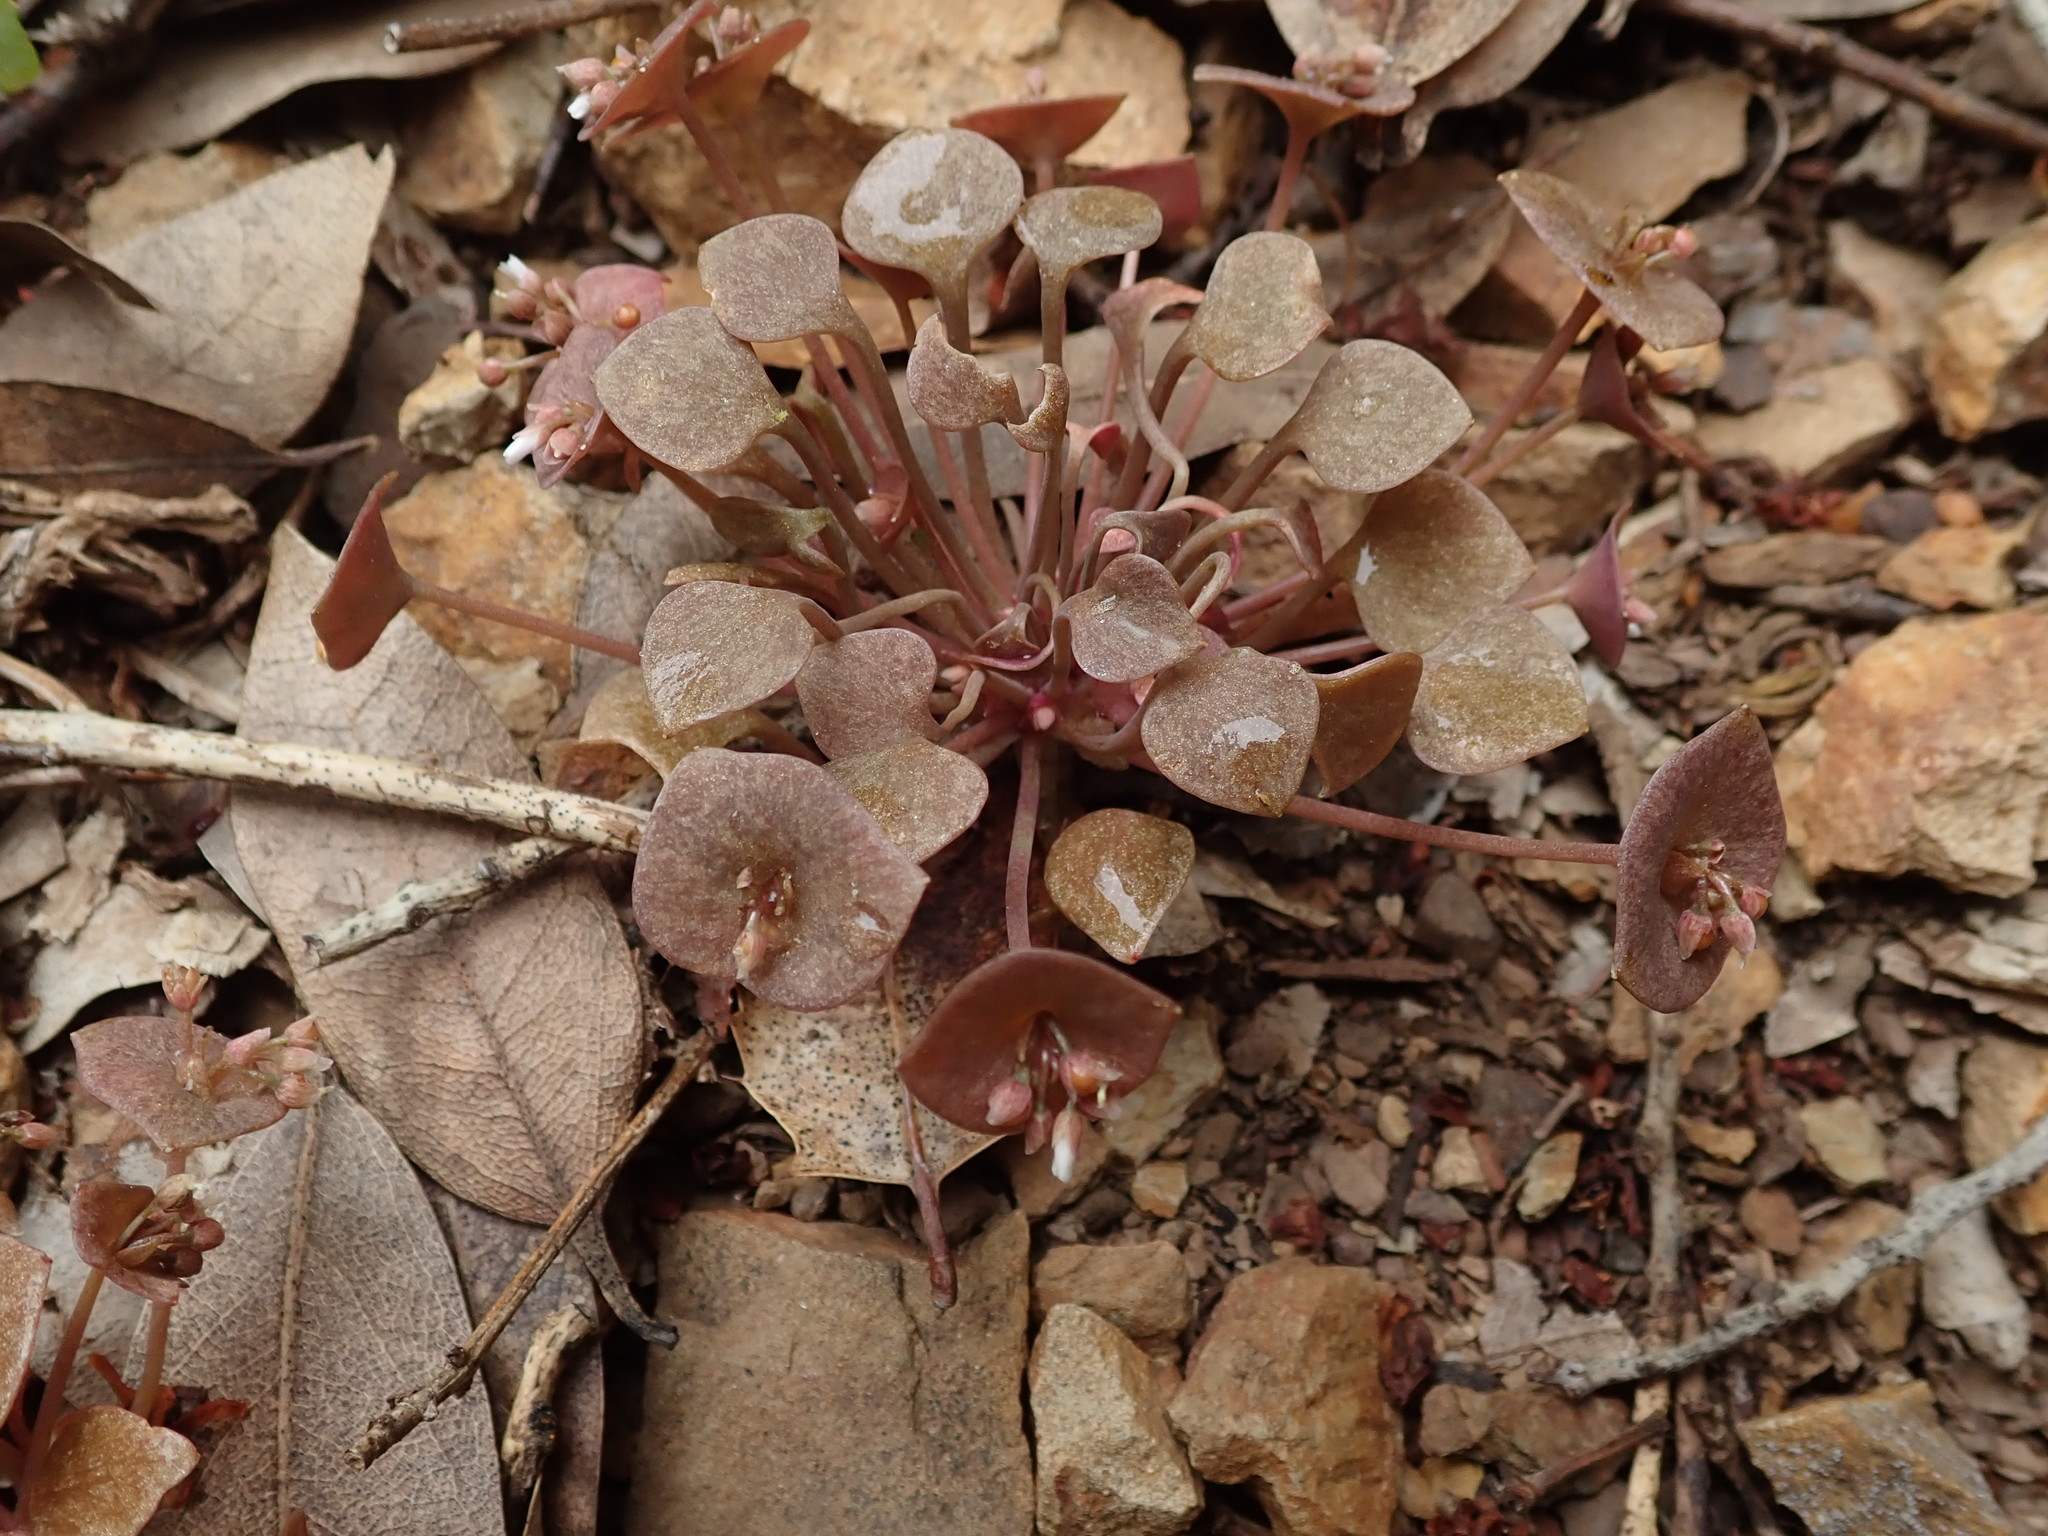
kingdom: Plantae
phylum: Tracheophyta
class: Magnoliopsida
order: Caryophyllales
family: Montiaceae
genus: Claytonia
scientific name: Claytonia rubra
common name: Erubescent miner's-lettuce
